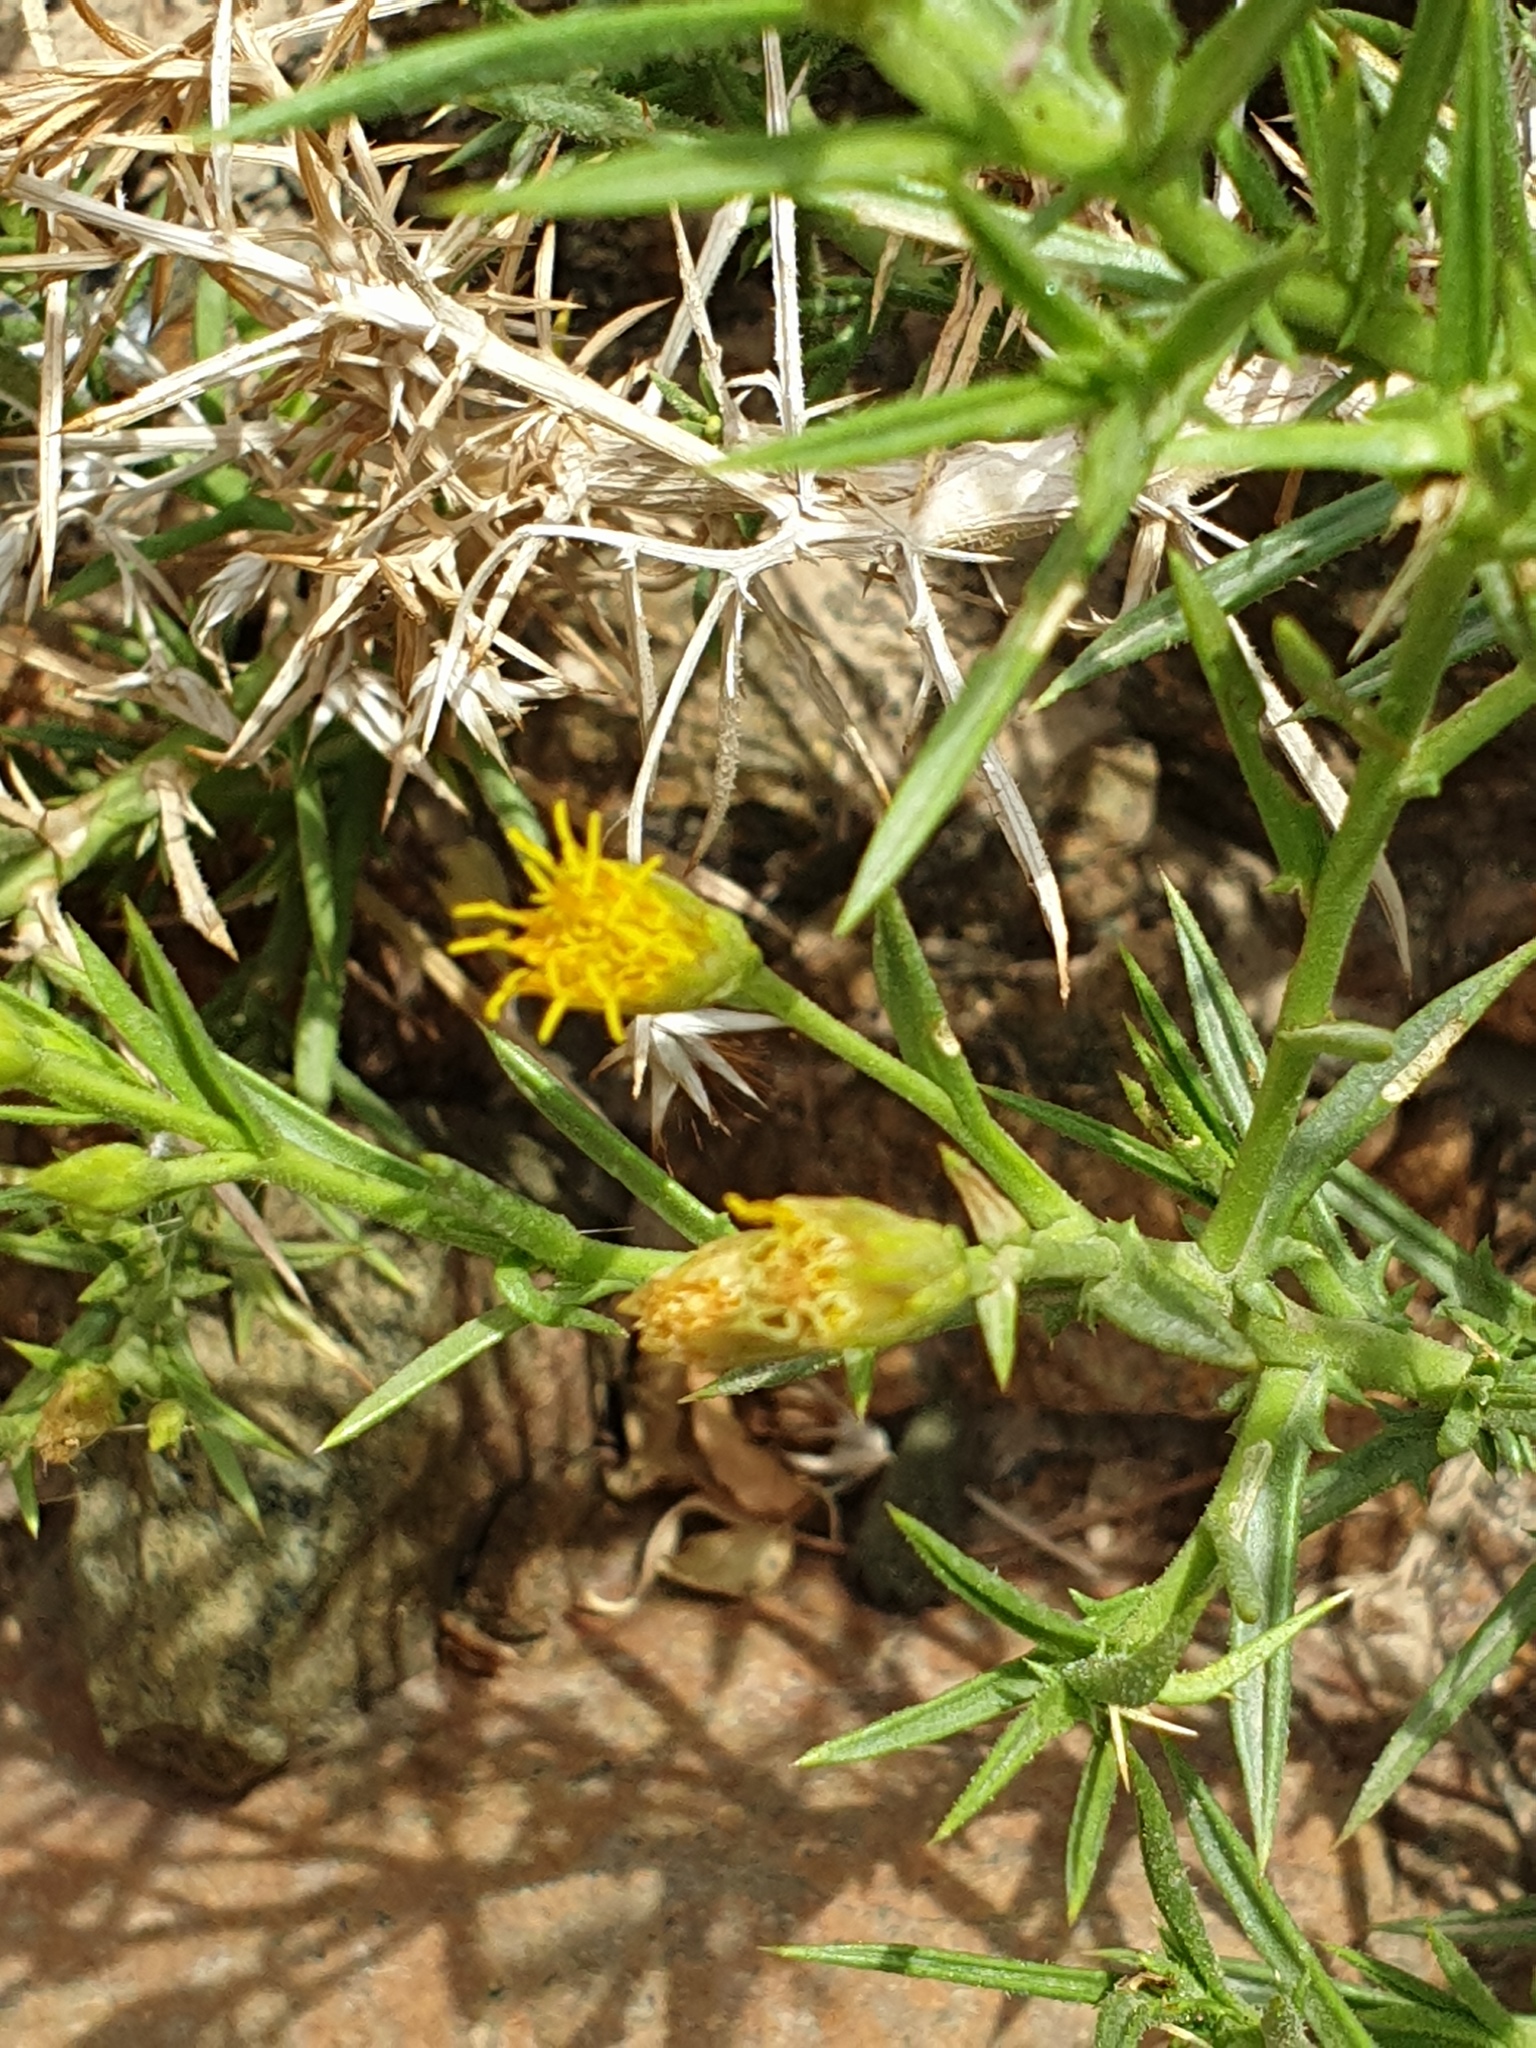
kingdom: Plantae
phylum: Tracheophyta
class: Magnoliopsida
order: Asterales
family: Asteraceae
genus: Iphiona
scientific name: Iphiona scabra
